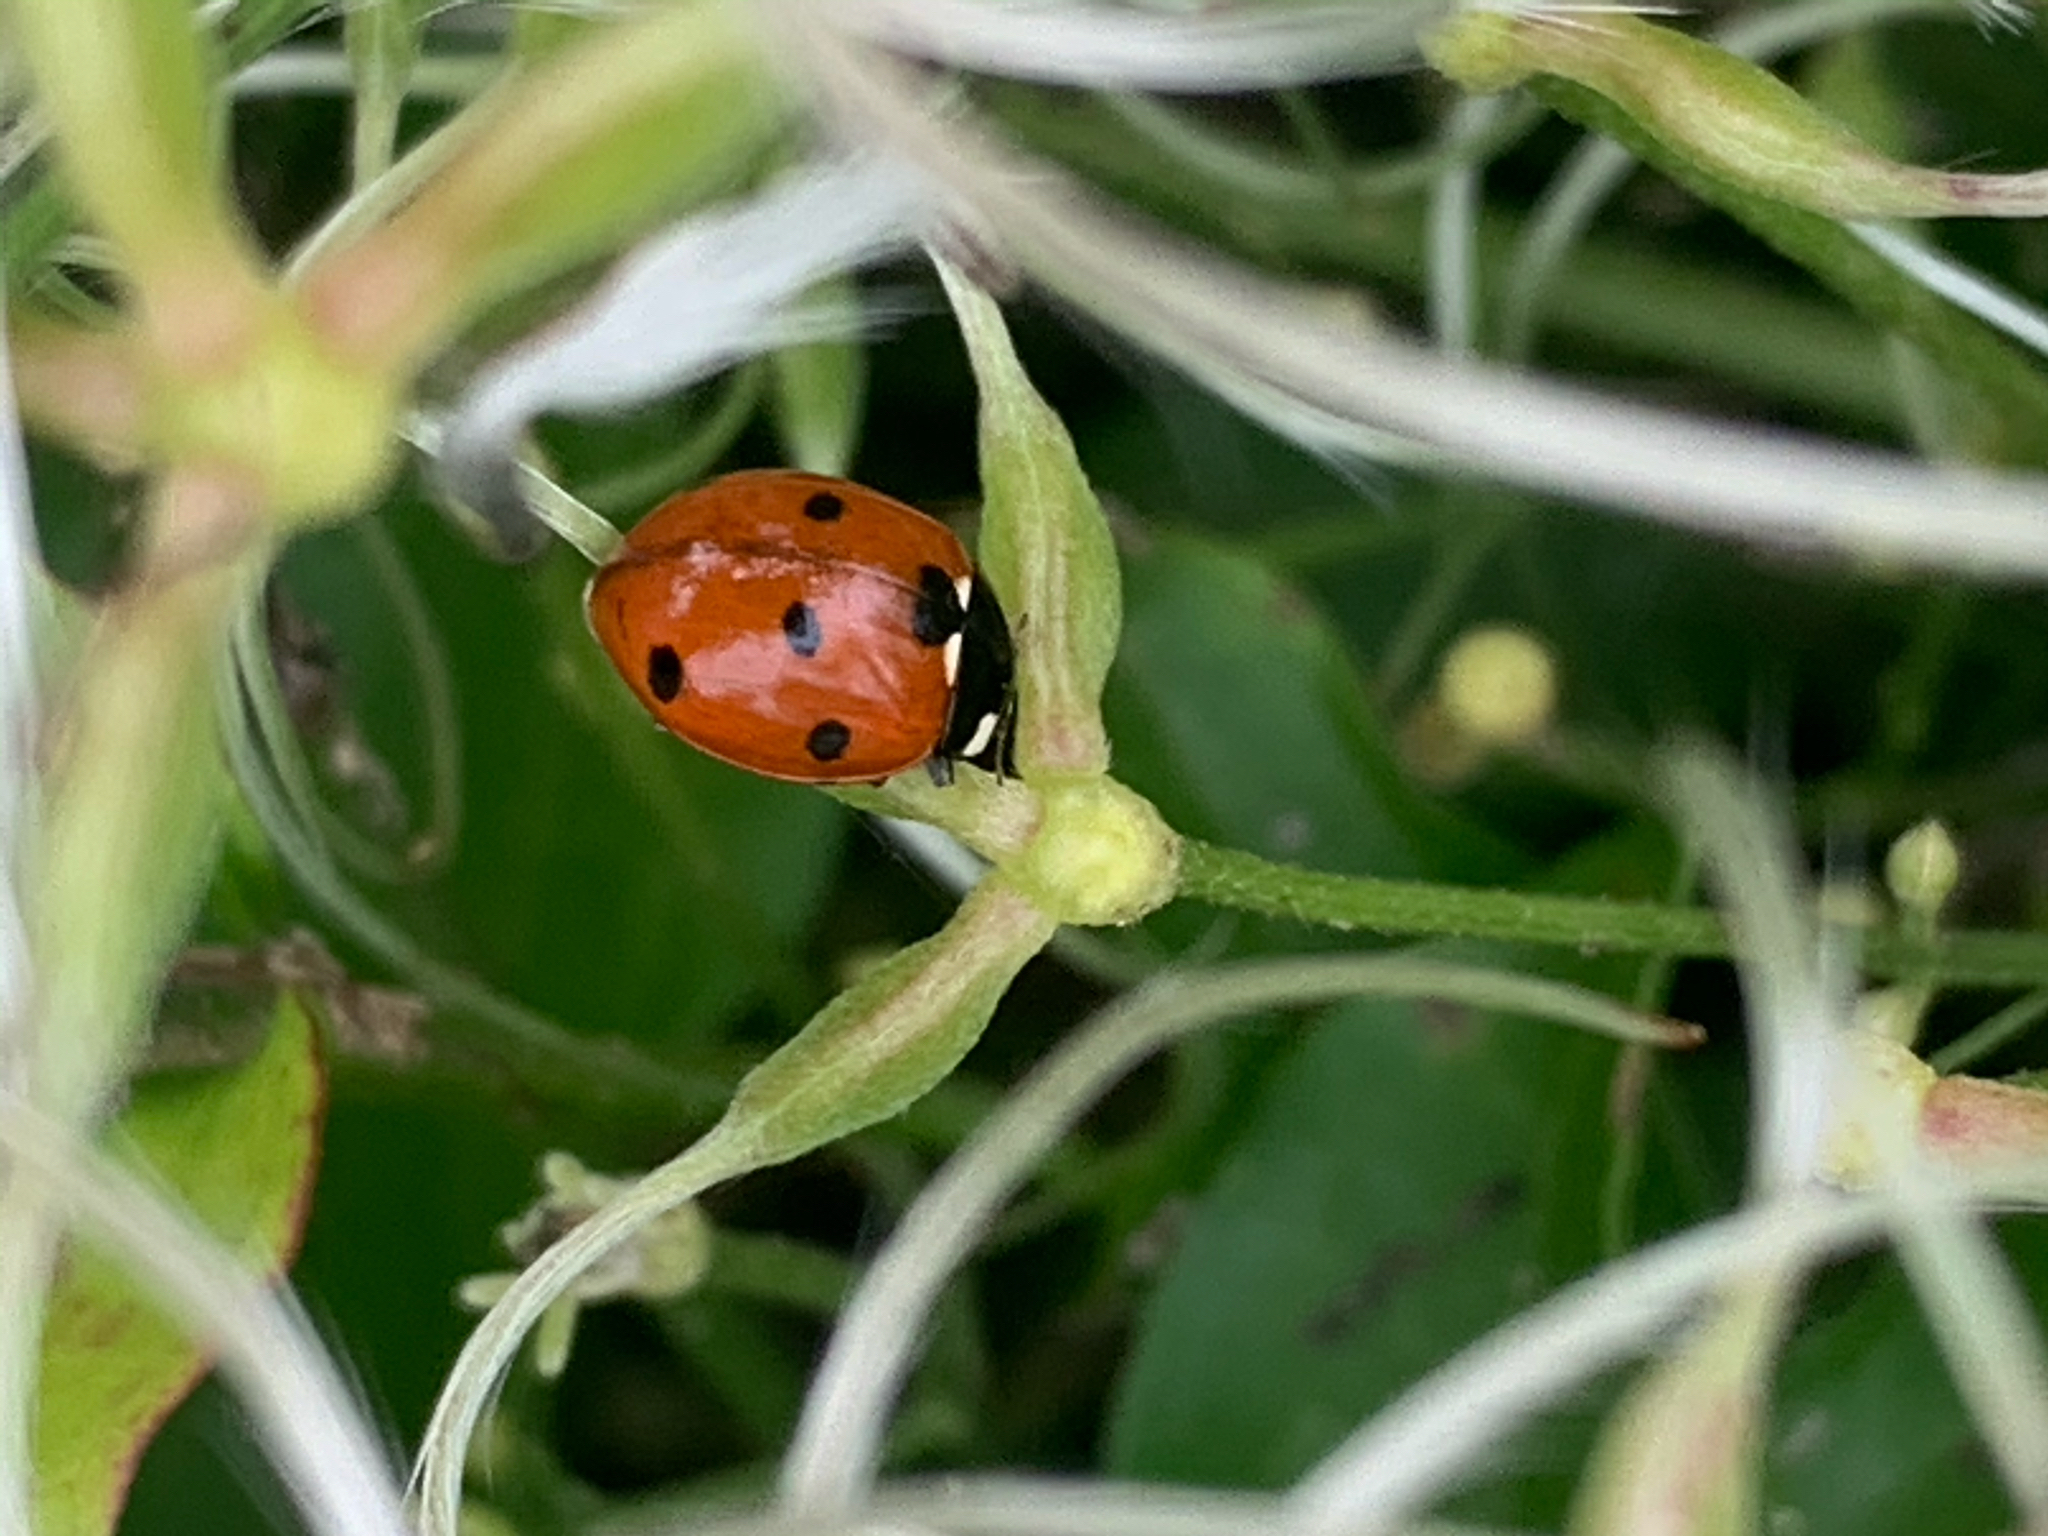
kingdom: Animalia
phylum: Arthropoda
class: Insecta
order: Coleoptera
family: Coccinellidae
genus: Coccinella
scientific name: Coccinella septempunctata
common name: Sevenspotted lady beetle
